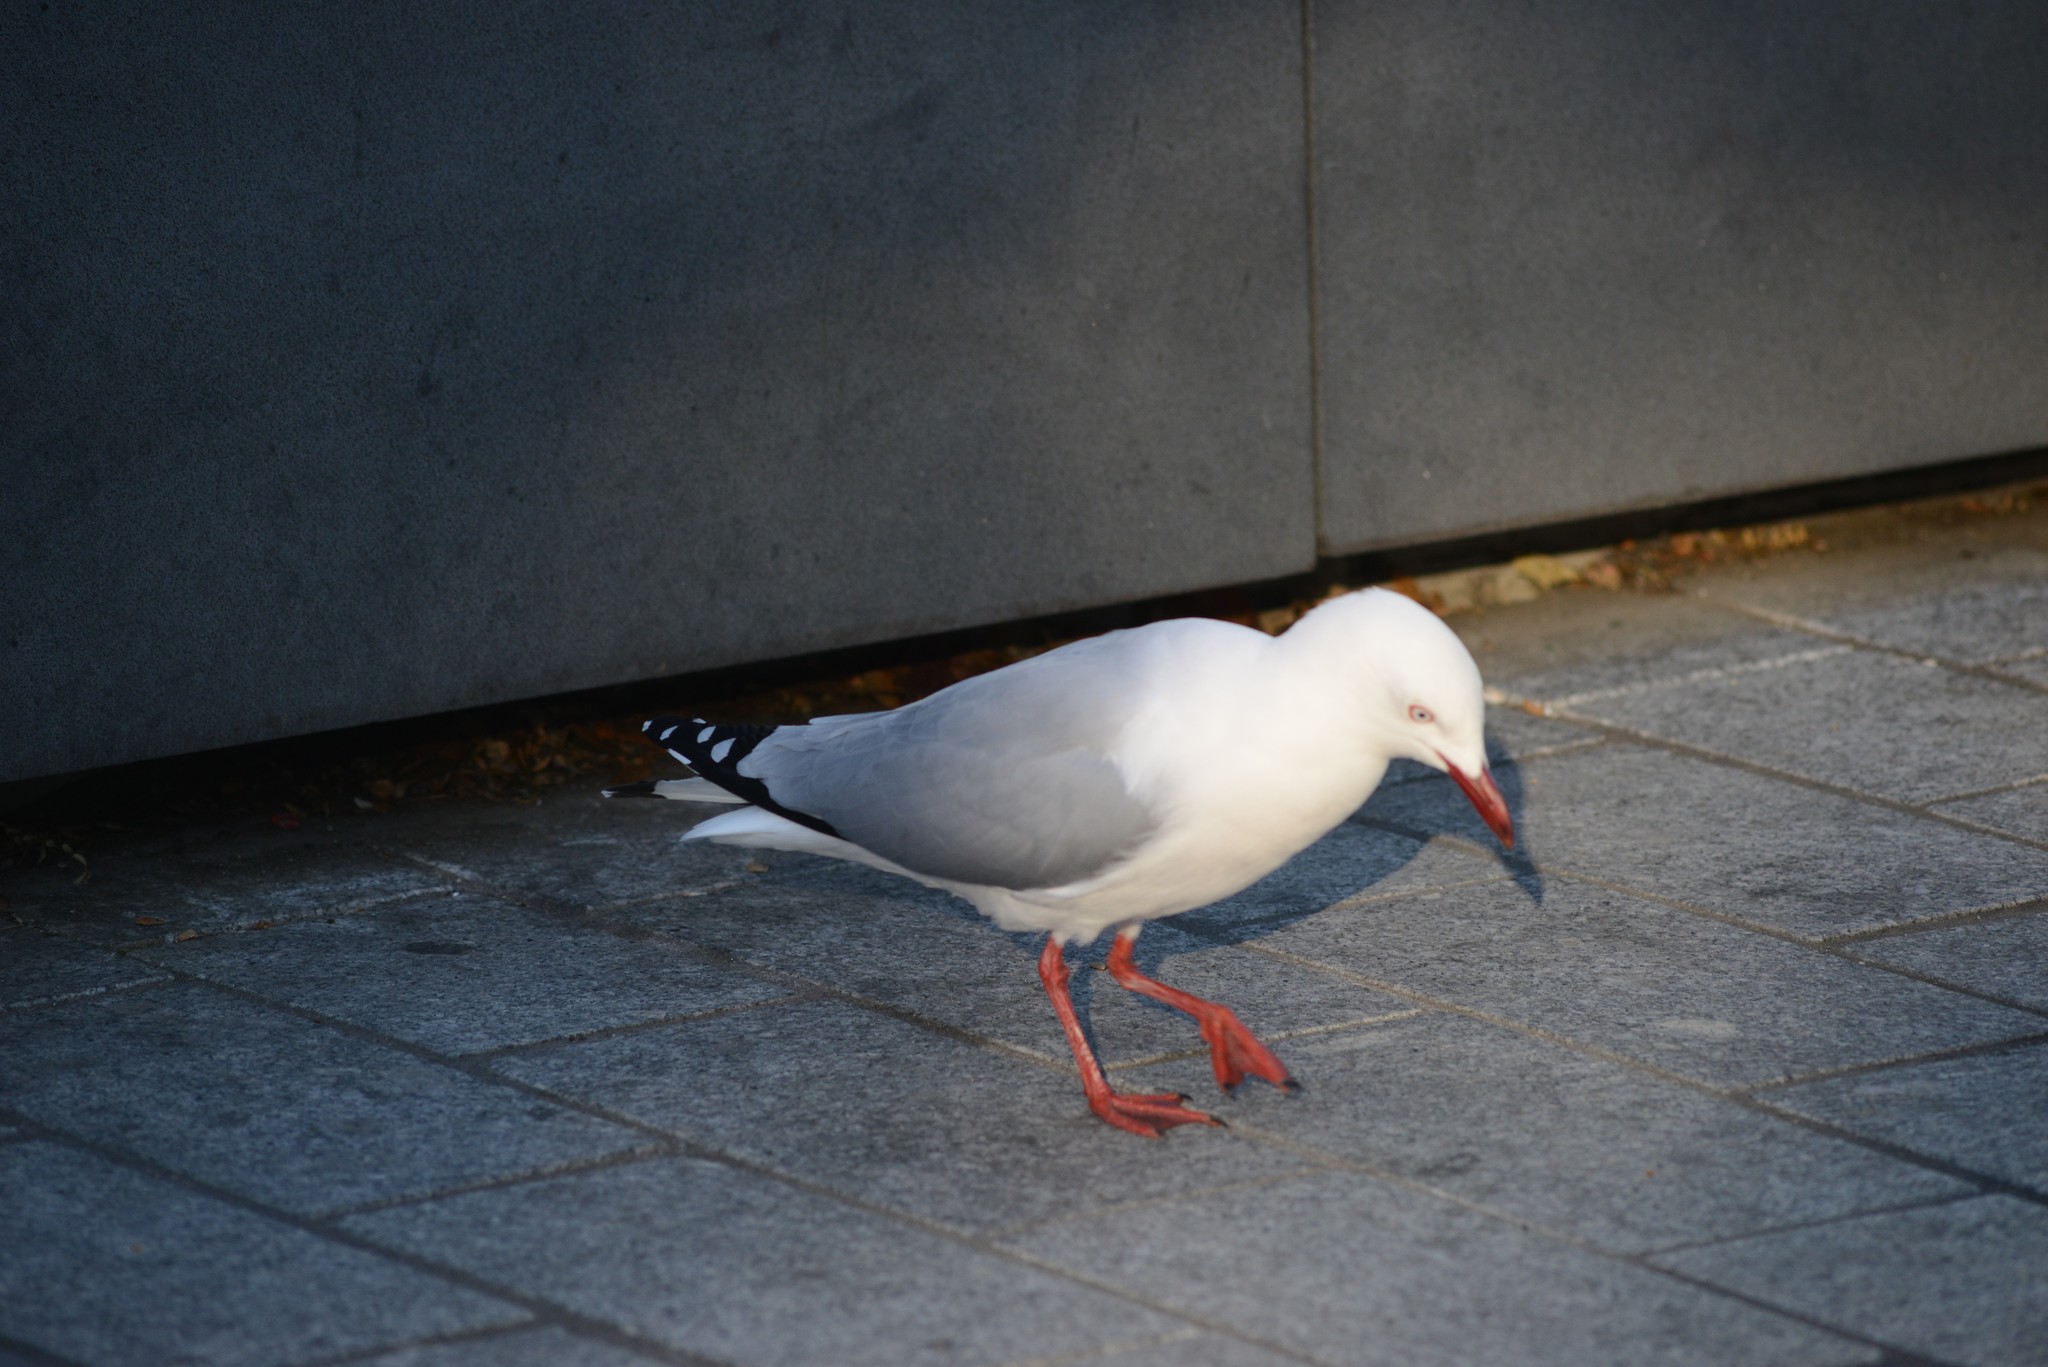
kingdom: Animalia
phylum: Chordata
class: Aves
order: Charadriiformes
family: Laridae
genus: Chroicocephalus
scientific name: Chroicocephalus novaehollandiae
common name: Silver gull
